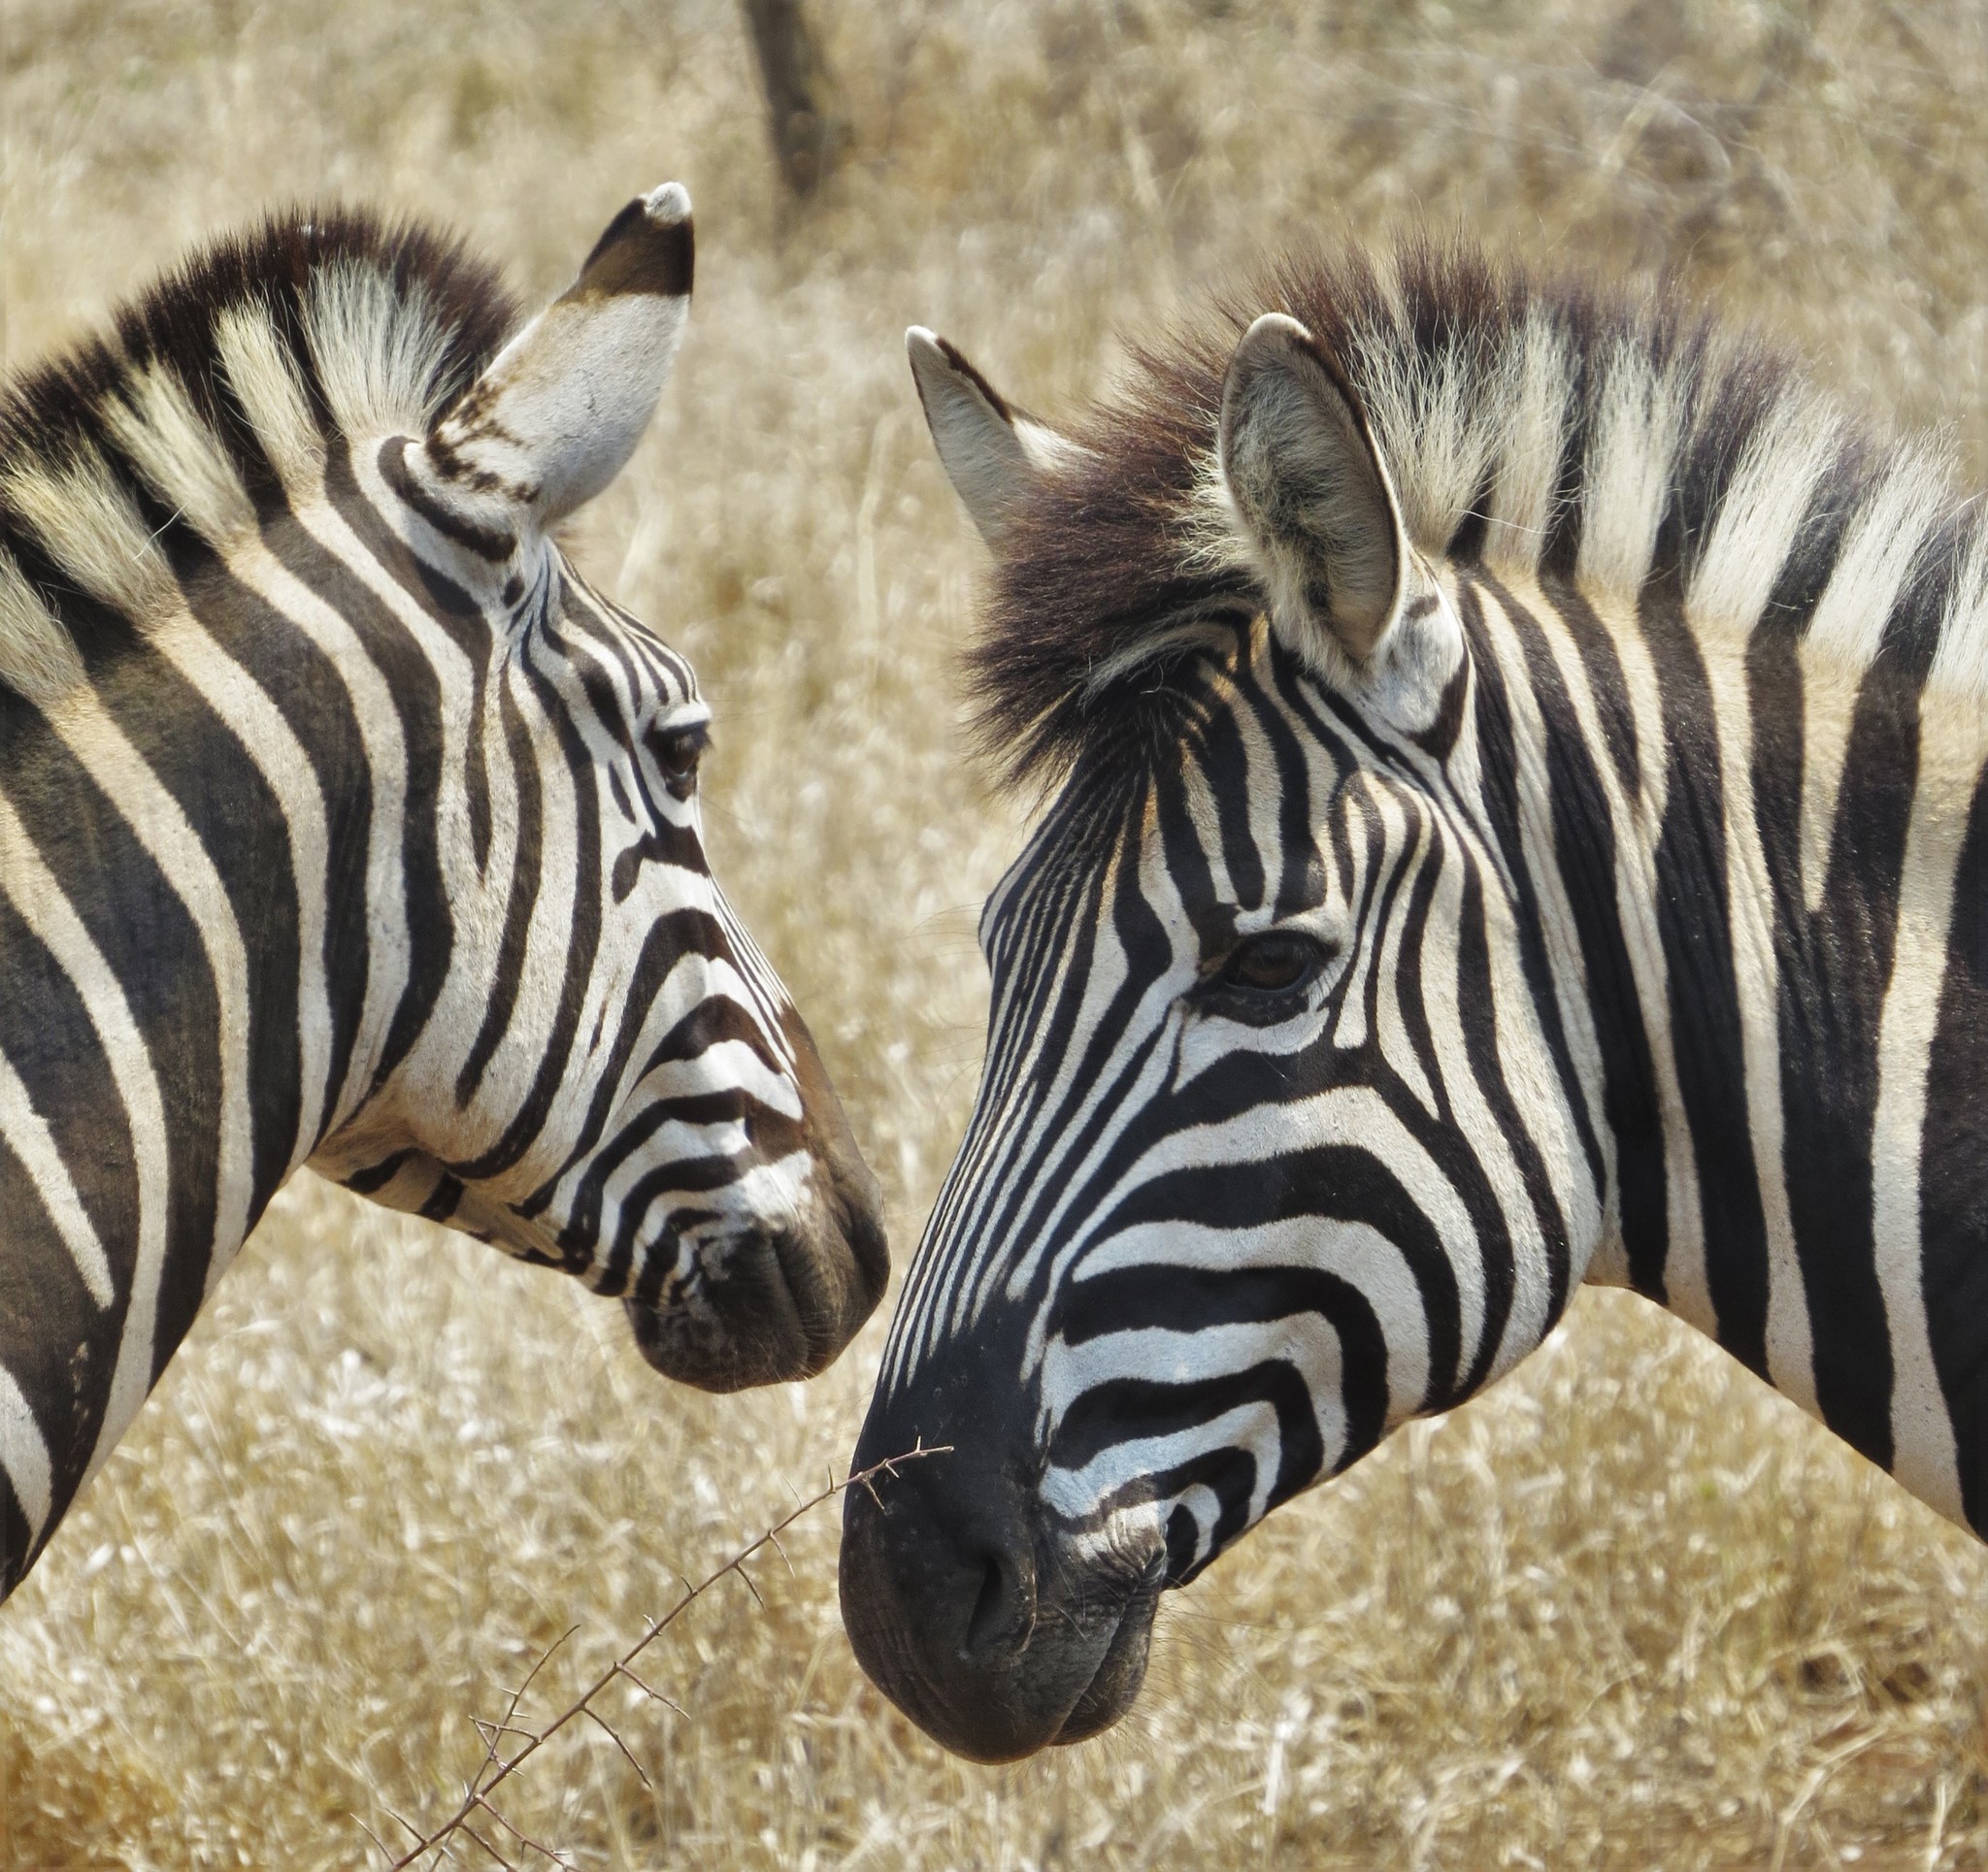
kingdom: Animalia
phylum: Chordata
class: Mammalia
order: Perissodactyla
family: Equidae
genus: Equus
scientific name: Equus quagga
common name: Plains zebra
